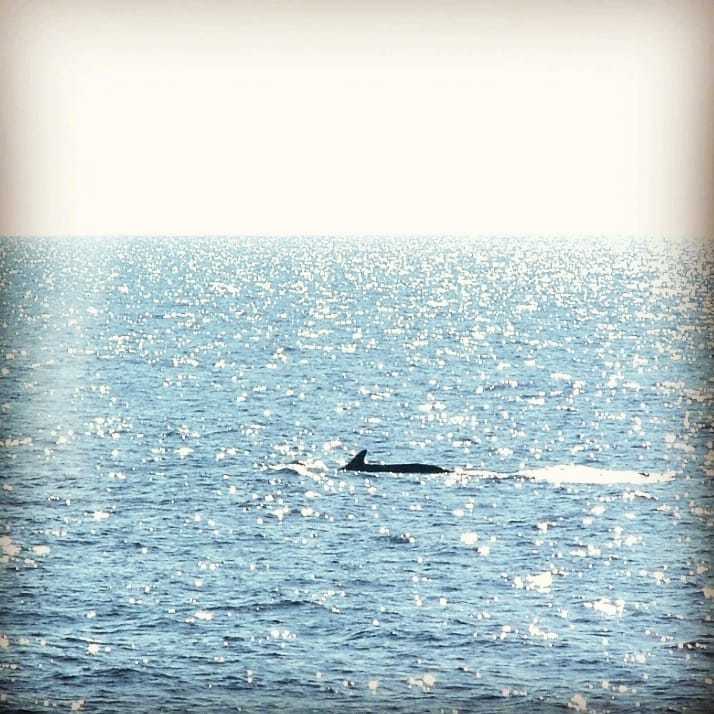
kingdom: Animalia
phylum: Chordata
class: Mammalia
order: Cetacea
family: Balaenopteridae
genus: Balaenoptera
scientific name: Balaenoptera physalus
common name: Fin whale
